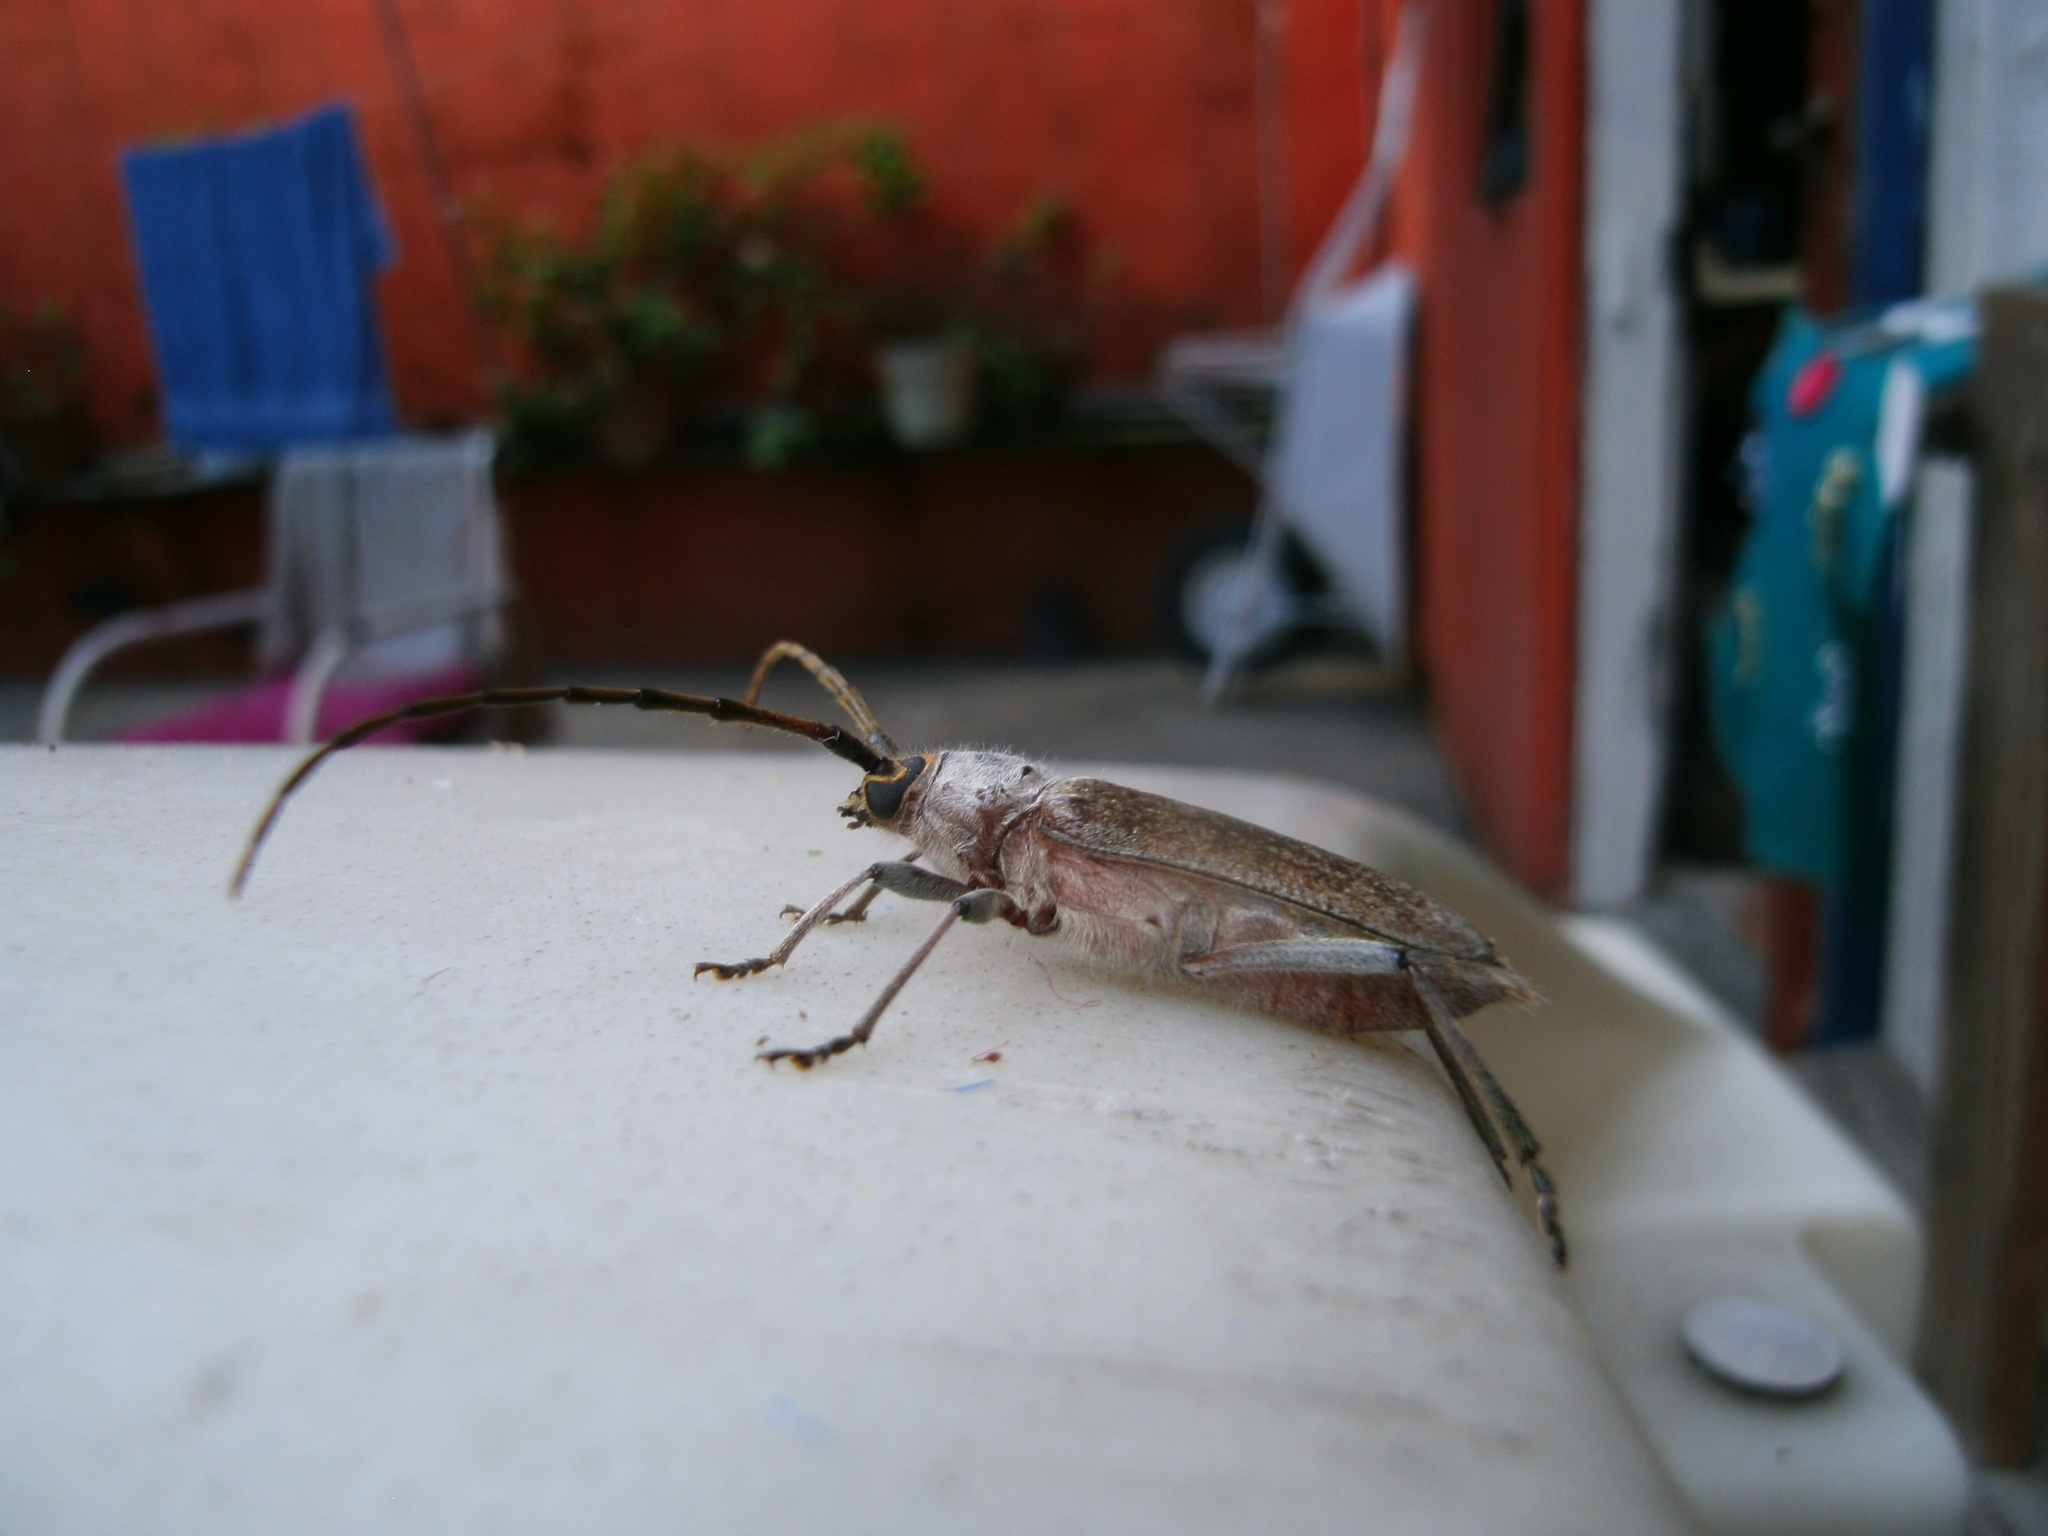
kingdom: Animalia
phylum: Arthropoda
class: Insecta
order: Coleoptera
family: Cerambycidae
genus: Gnaphalodes
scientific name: Gnaphalodes trachyderoides
